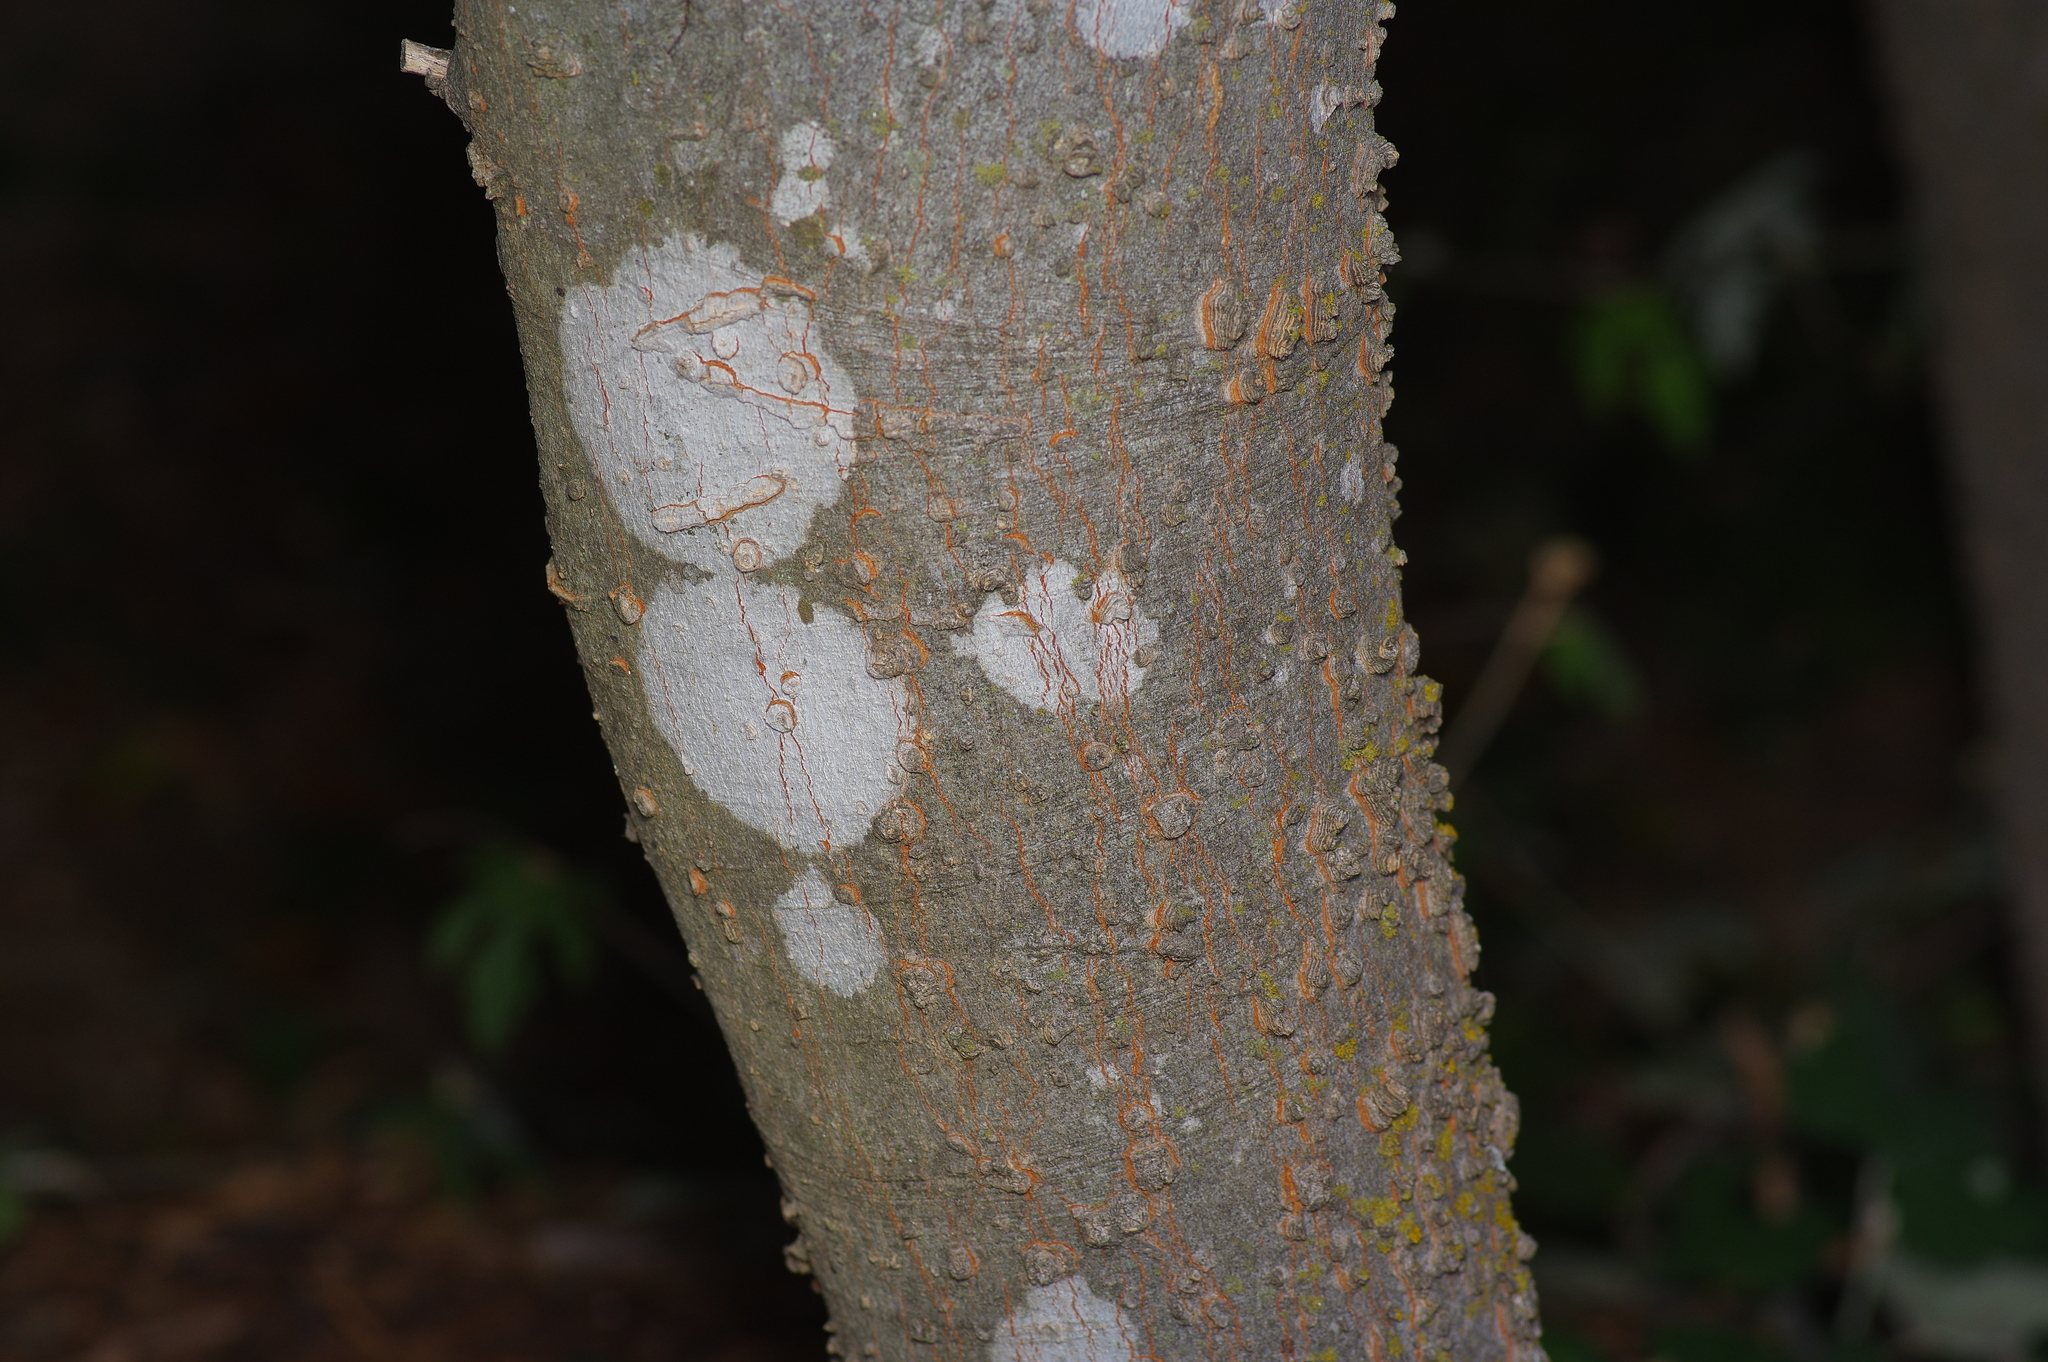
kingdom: Plantae
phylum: Tracheophyta
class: Magnoliopsida
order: Rosales
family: Cannabaceae
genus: Celtis
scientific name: Celtis laevigata
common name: Sugarberry
